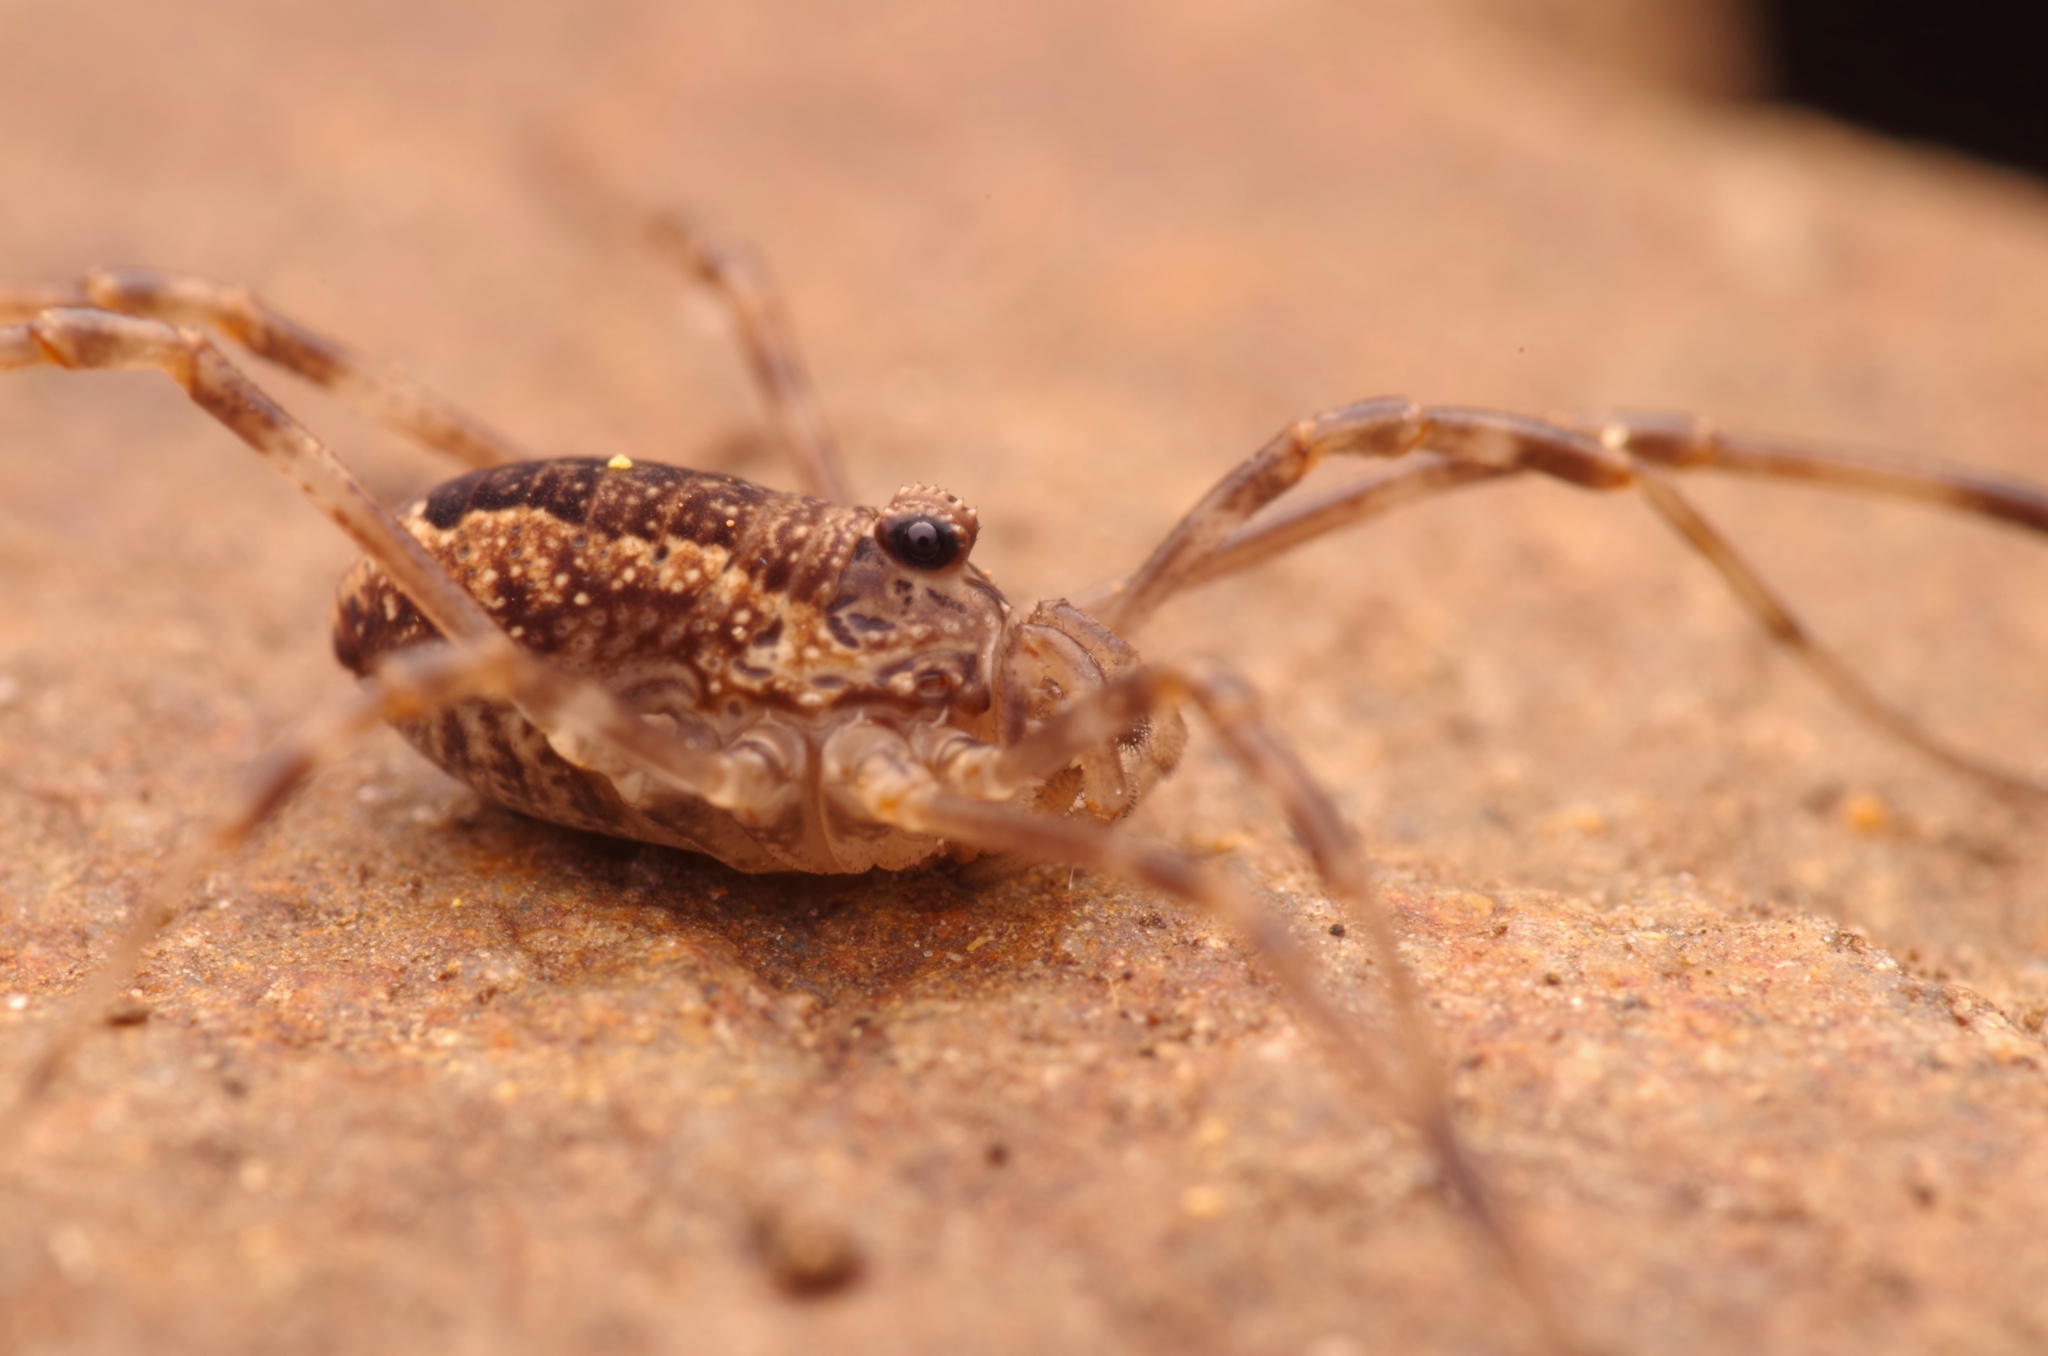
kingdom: Animalia
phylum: Arthropoda
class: Arachnida
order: Opiliones
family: Phalangiidae
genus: Rilaena
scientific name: Rilaena triangularis
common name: Spring harvestman
